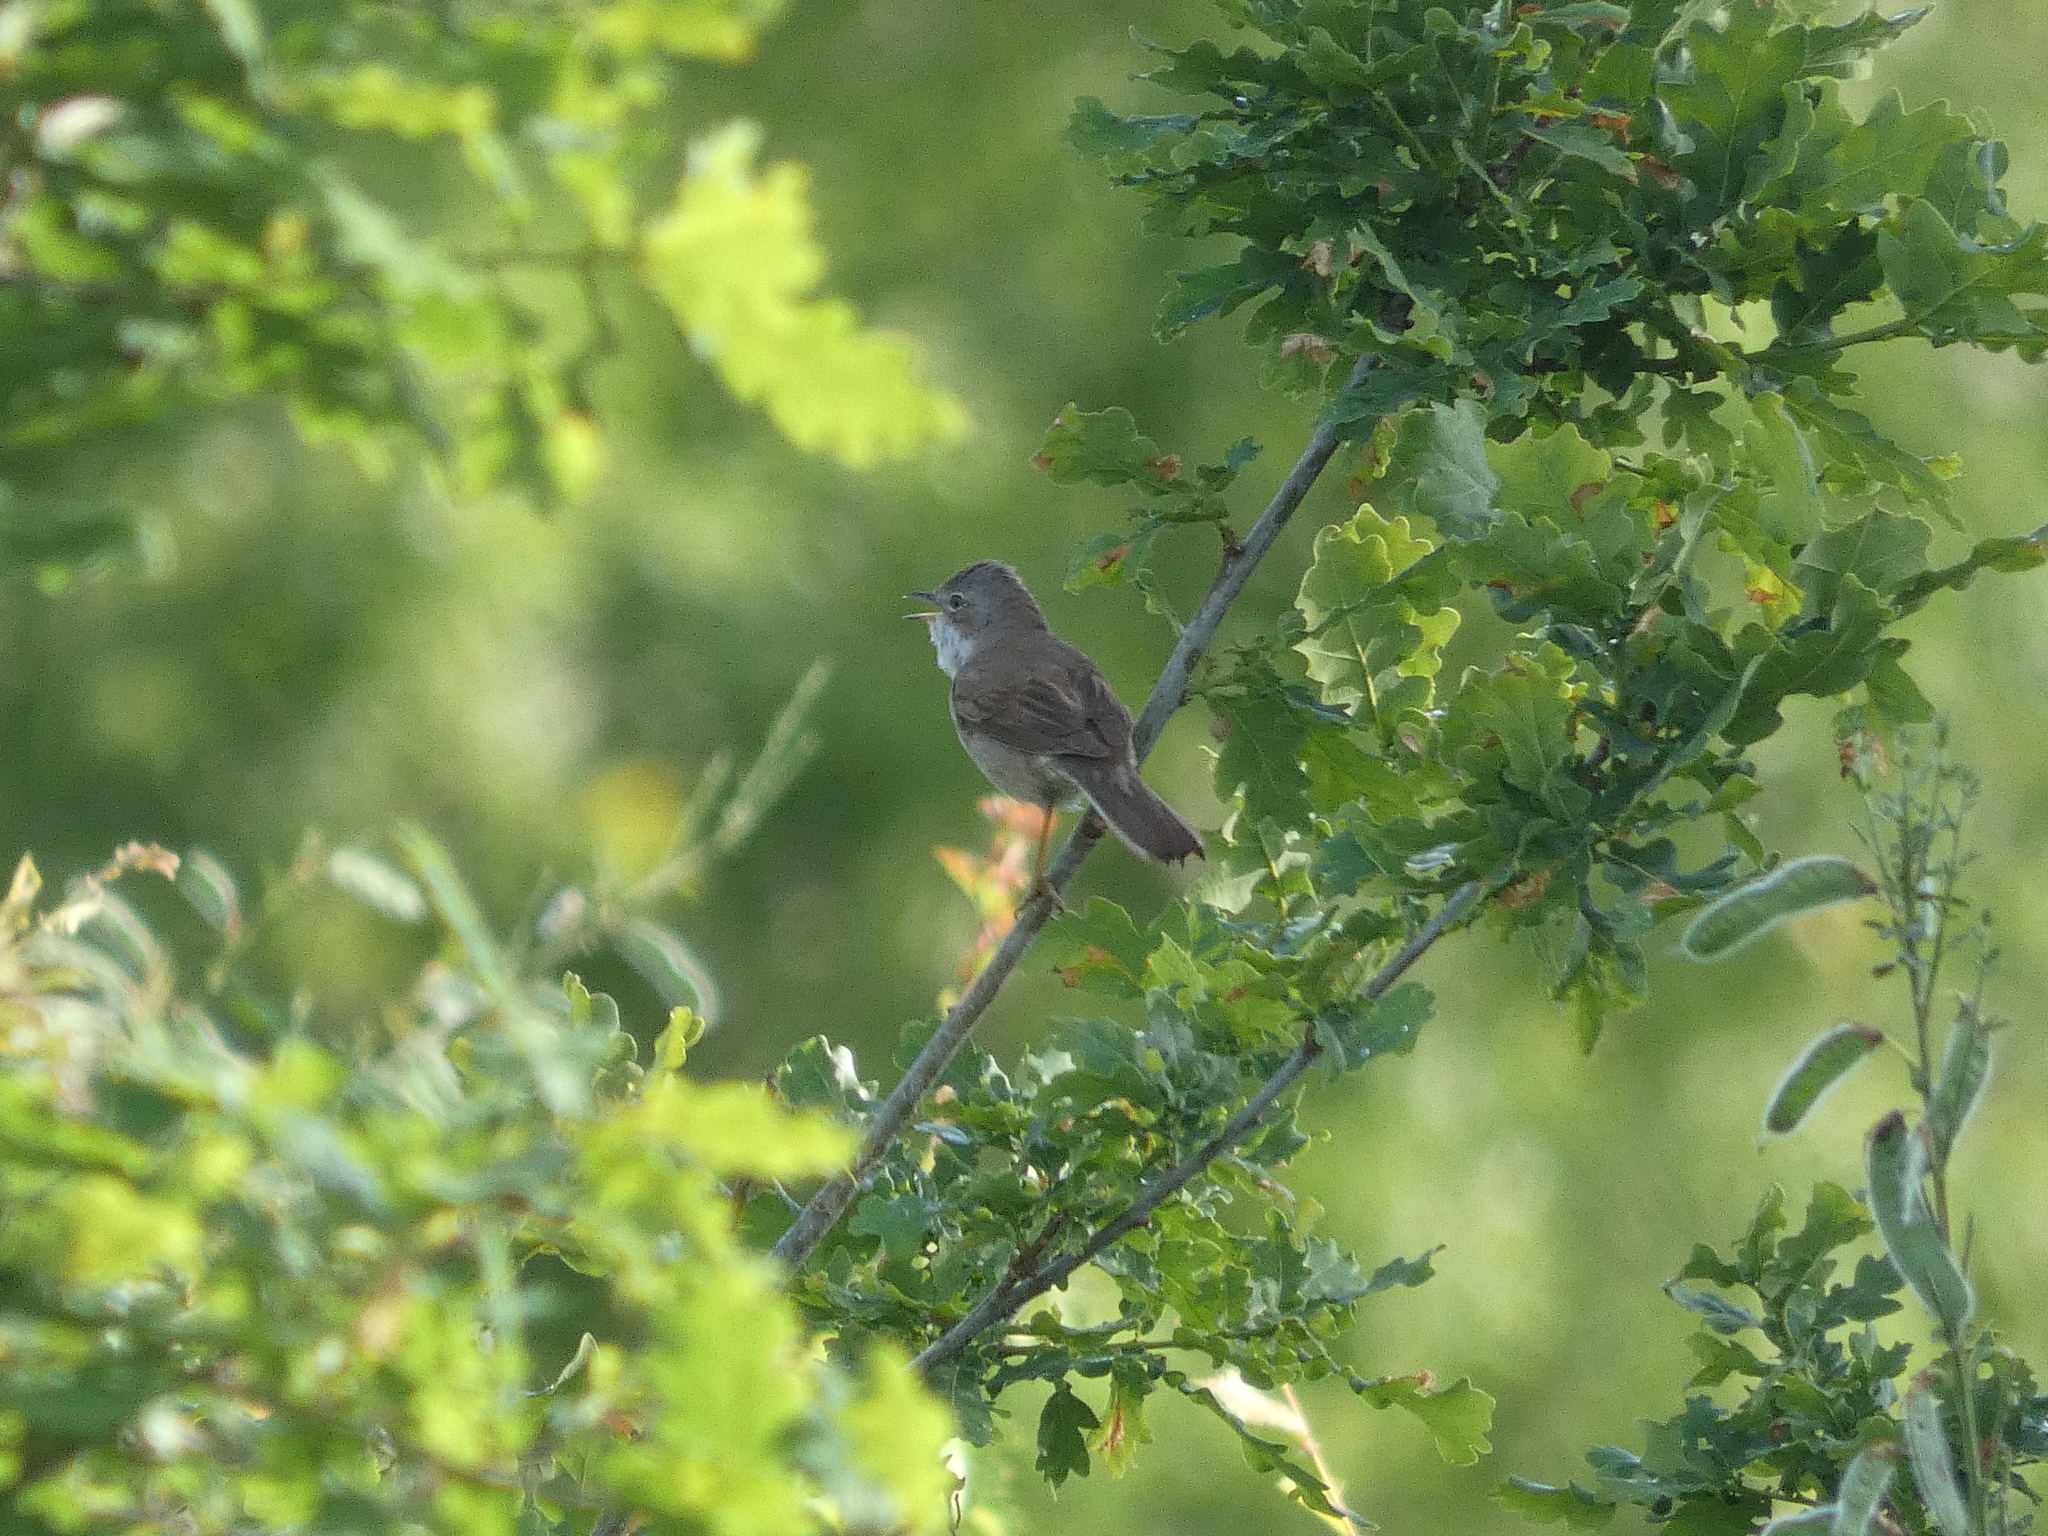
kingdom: Animalia
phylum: Chordata
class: Aves
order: Passeriformes
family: Sylviidae
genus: Sylvia
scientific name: Sylvia communis
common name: Common whitethroat
